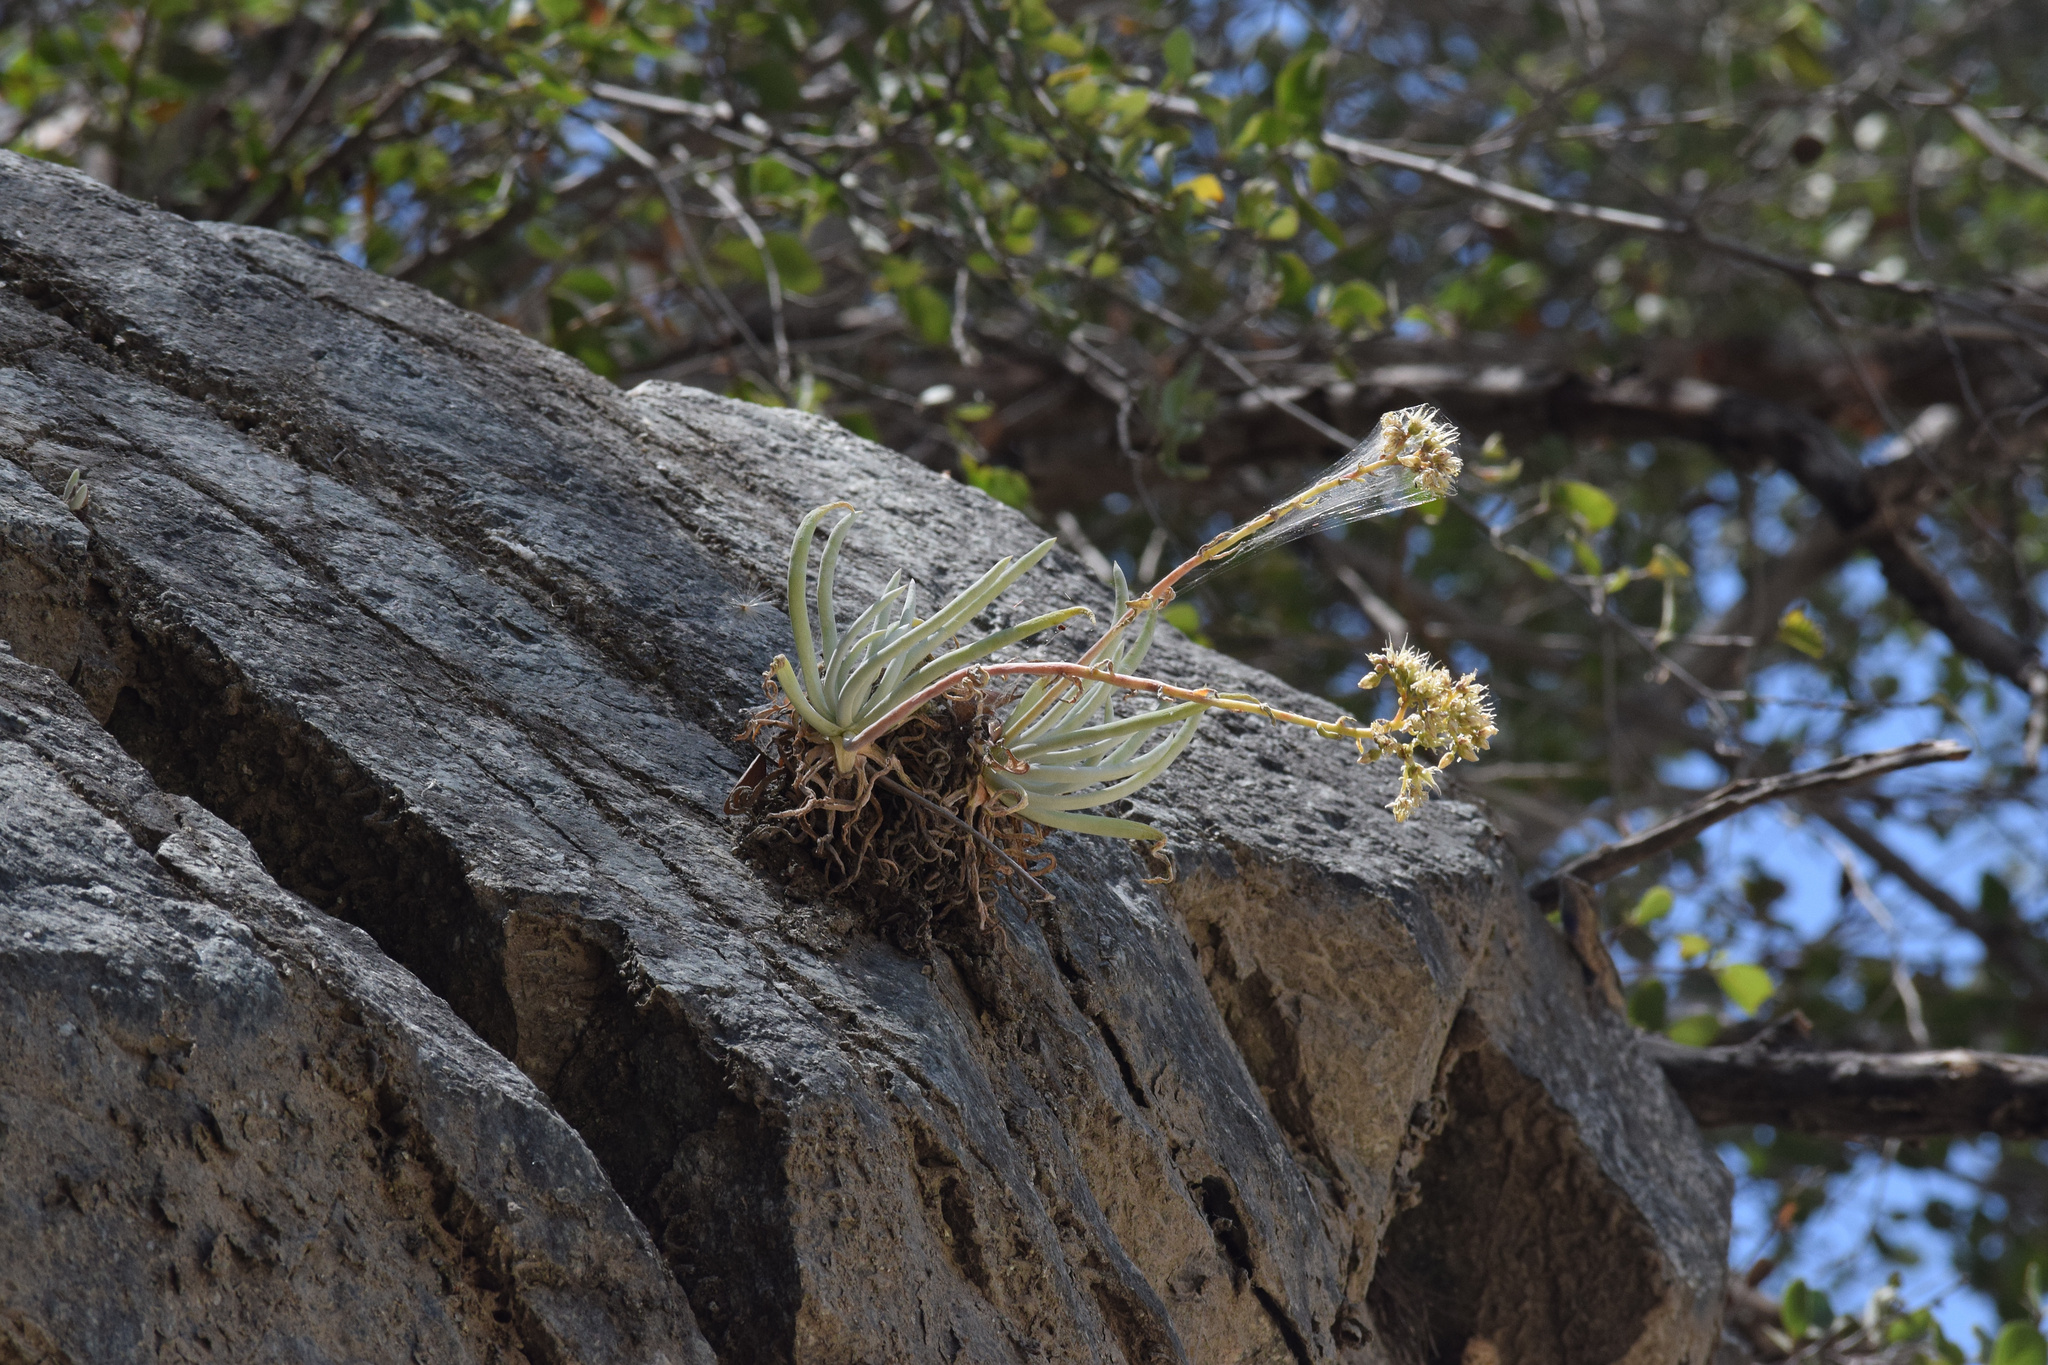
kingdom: Plantae
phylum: Tracheophyta
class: Magnoliopsida
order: Saxifragales
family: Crassulaceae
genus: Dudleya
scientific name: Dudleya densiflora
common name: San gabriel mountains dudleya
